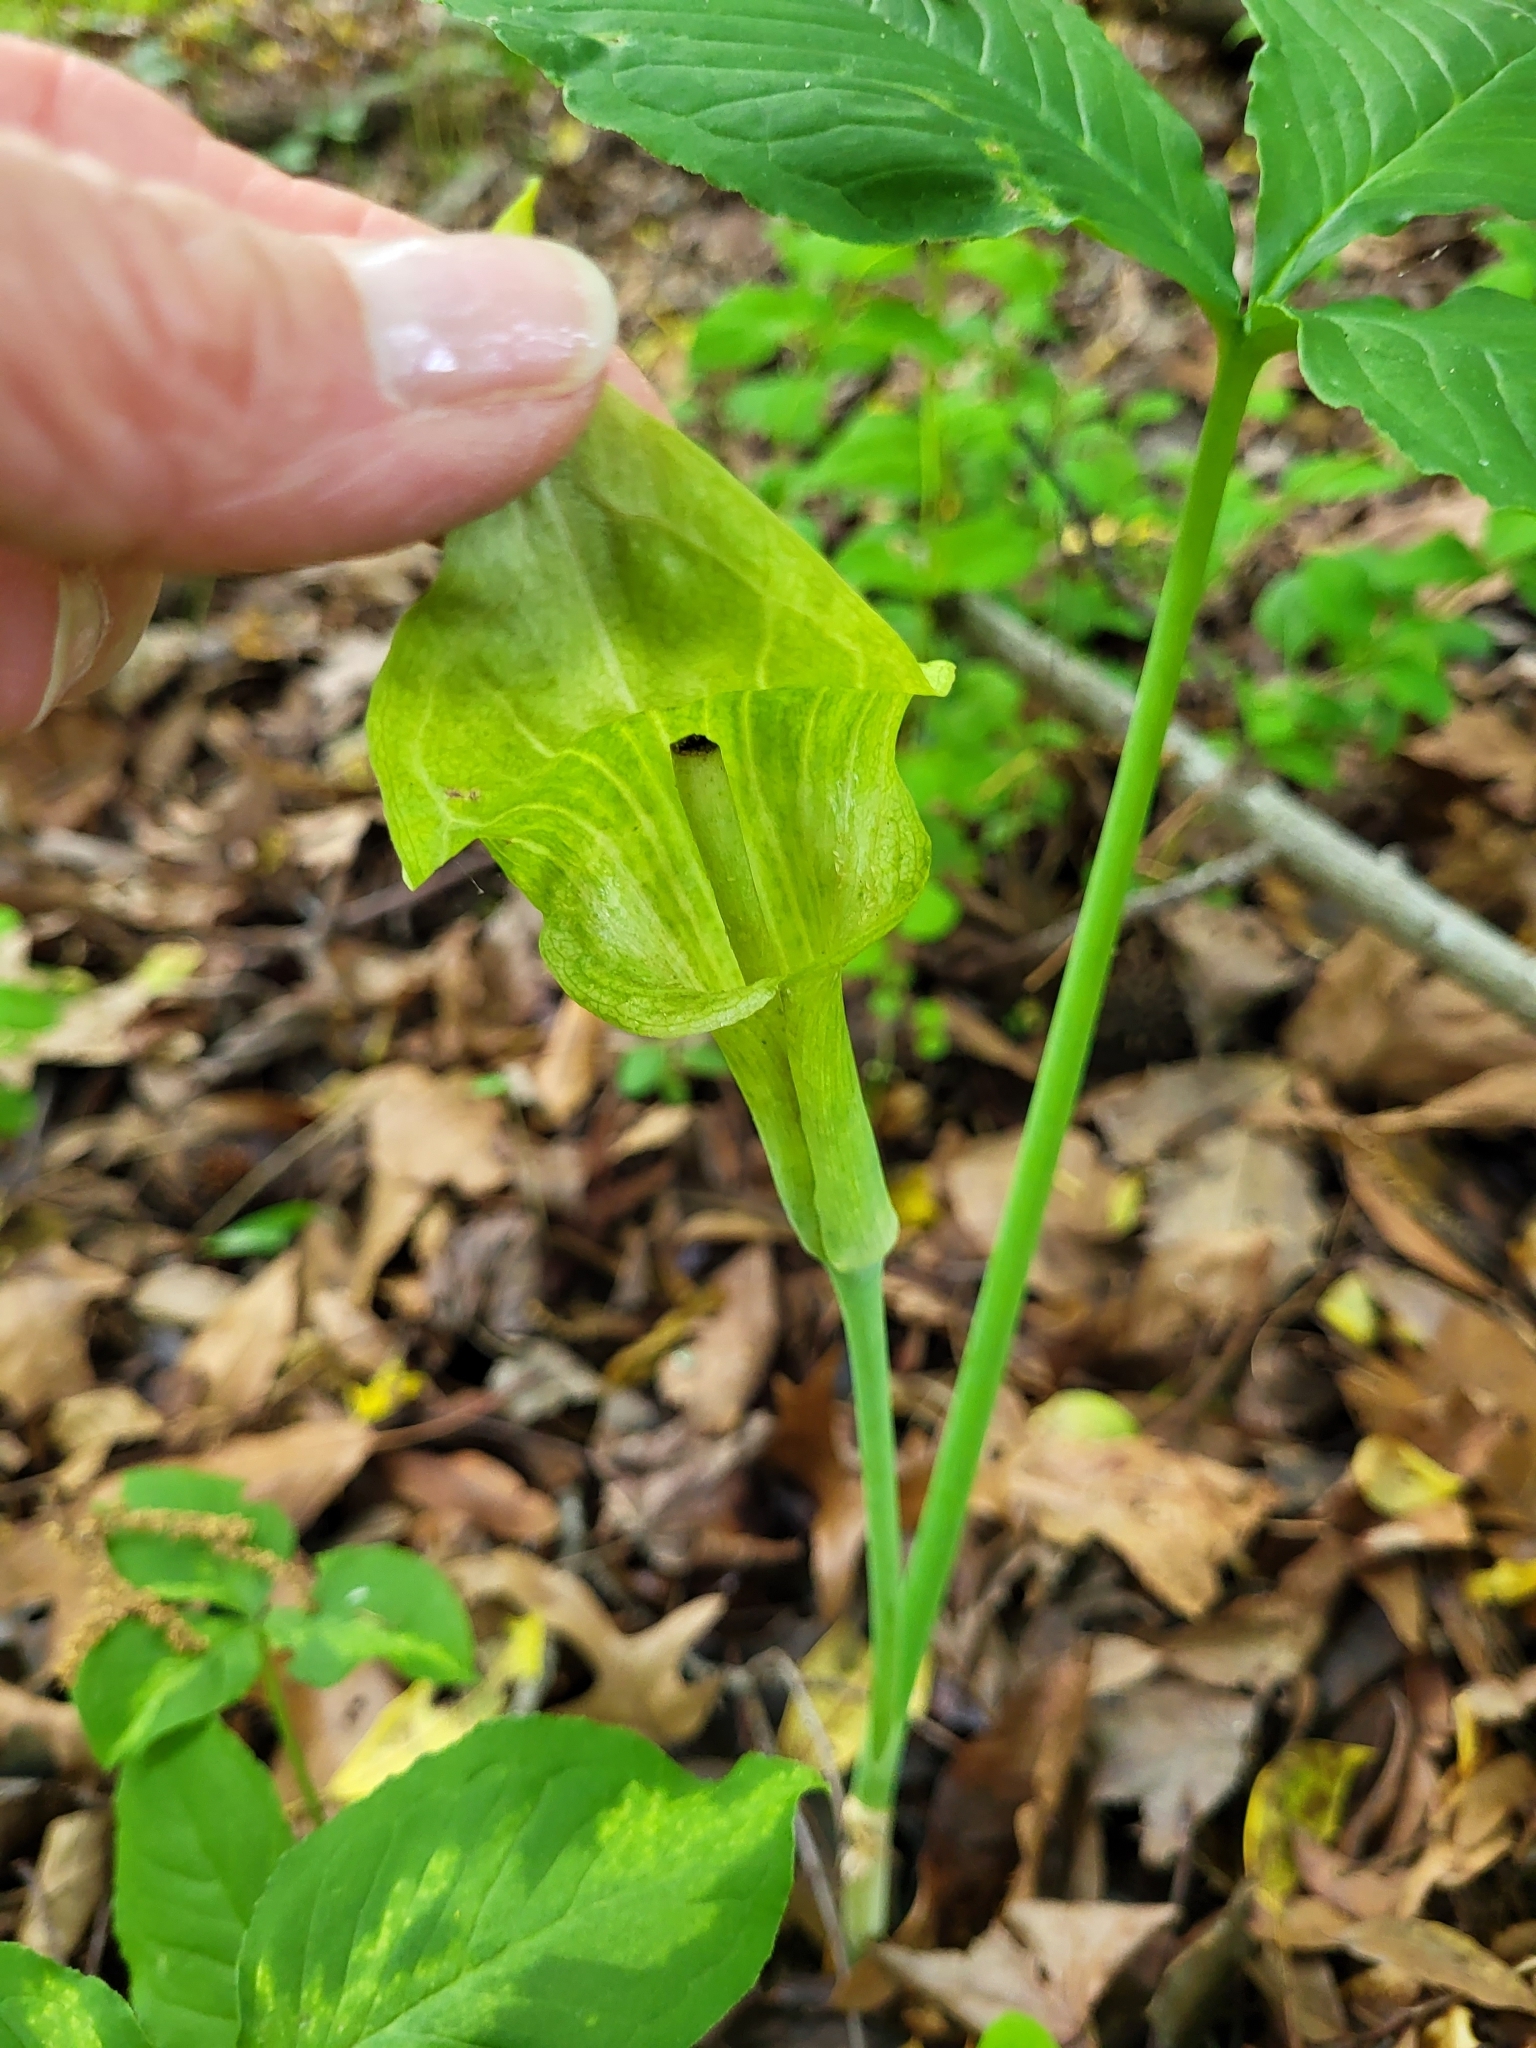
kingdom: Plantae
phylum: Tracheophyta
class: Liliopsida
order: Alismatales
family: Araceae
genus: Arisaema
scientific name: Arisaema triphyllum
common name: Jack-in-the-pulpit
